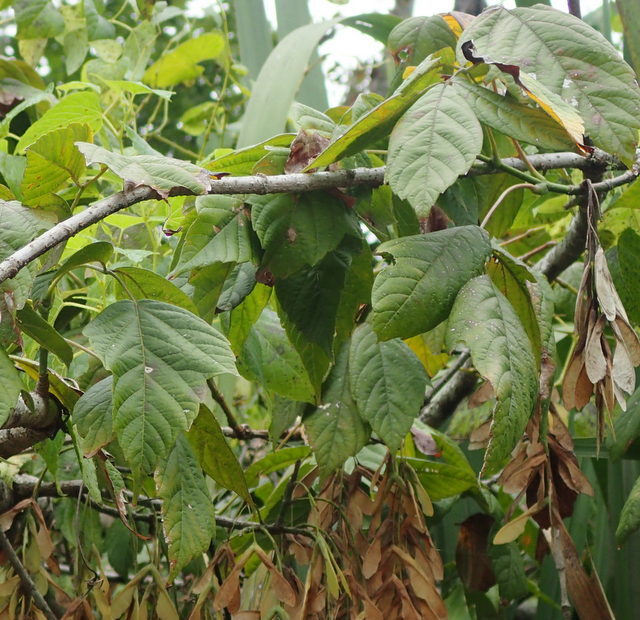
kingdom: Plantae
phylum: Tracheophyta
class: Magnoliopsida
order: Sapindales
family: Sapindaceae
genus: Acer
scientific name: Acer negundo
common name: Ashleaf maple
